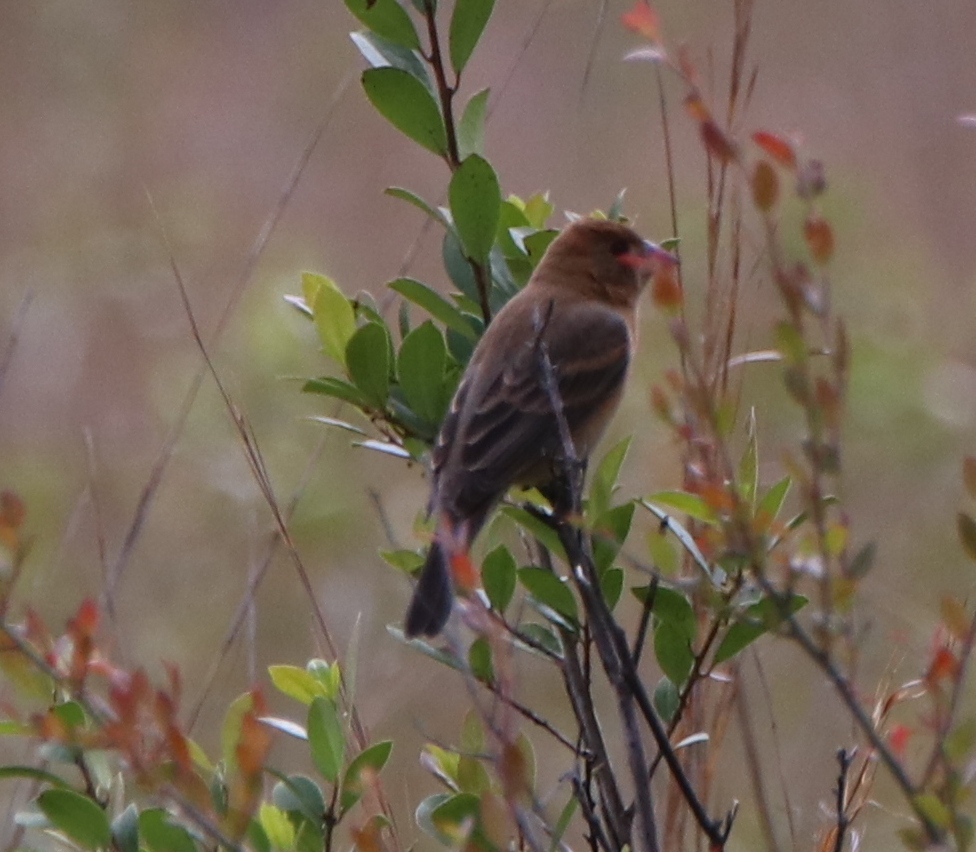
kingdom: Animalia
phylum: Chordata
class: Aves
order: Passeriformes
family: Cardinalidae
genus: Passerina
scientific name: Passerina caerulea
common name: Blue grosbeak
